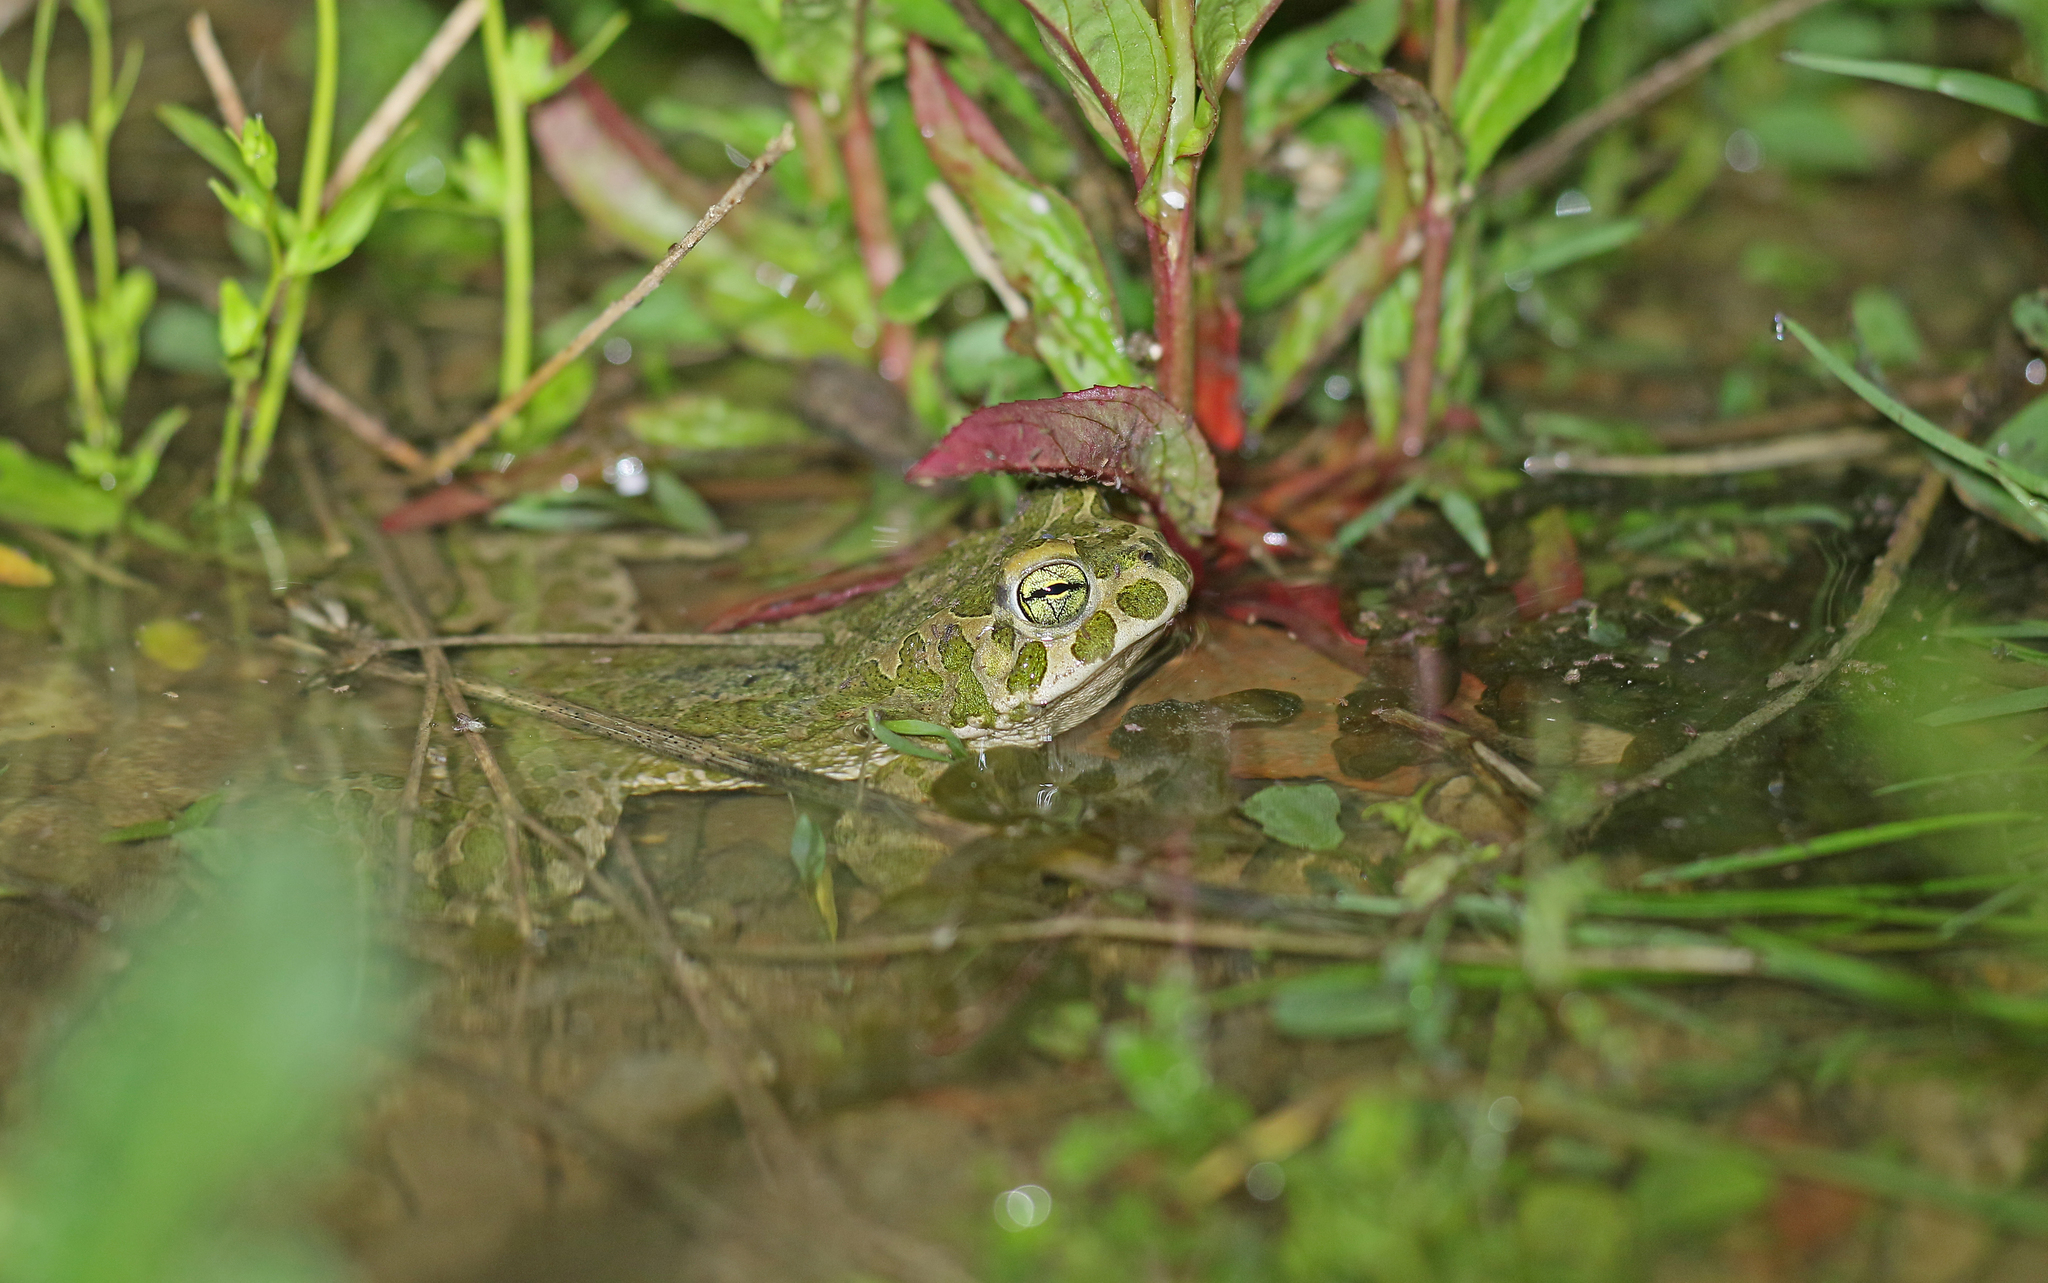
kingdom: Animalia
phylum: Chordata
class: Amphibia
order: Anura
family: Bufonidae
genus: Bufotes
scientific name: Bufotes viridis
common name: European green toad
